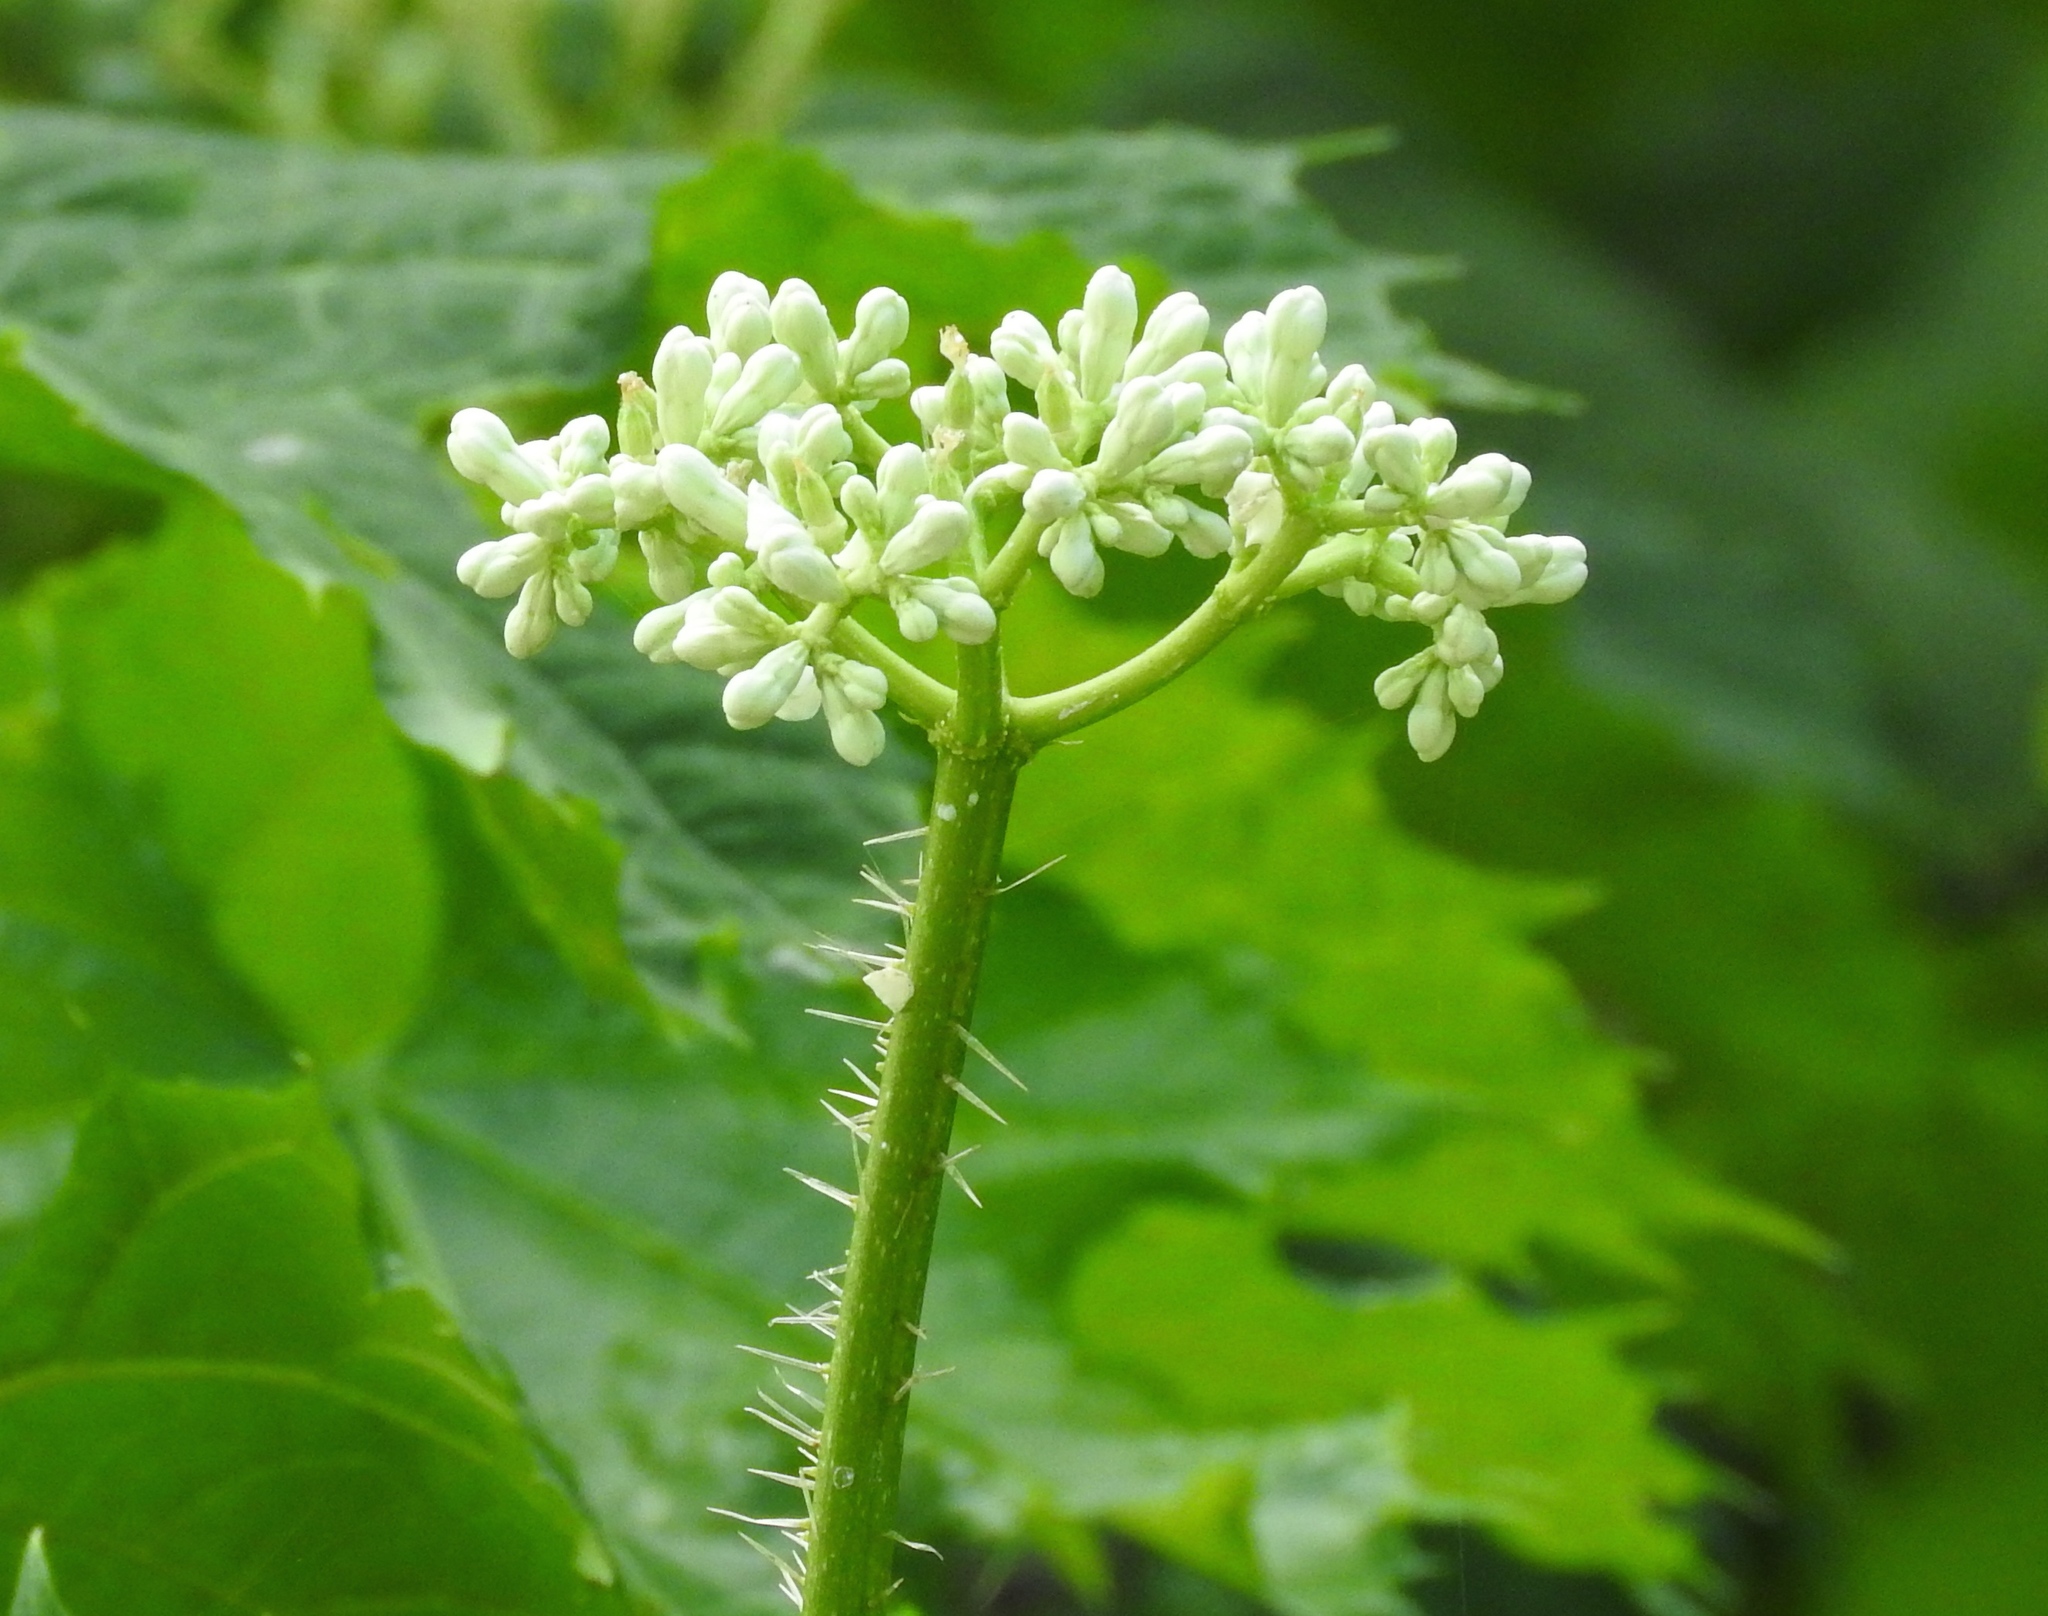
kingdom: Plantae
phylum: Tracheophyta
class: Magnoliopsida
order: Malpighiales
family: Euphorbiaceae
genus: Cnidoscolus
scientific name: Cnidoscolus aconitifolius
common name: Cabbage-star
